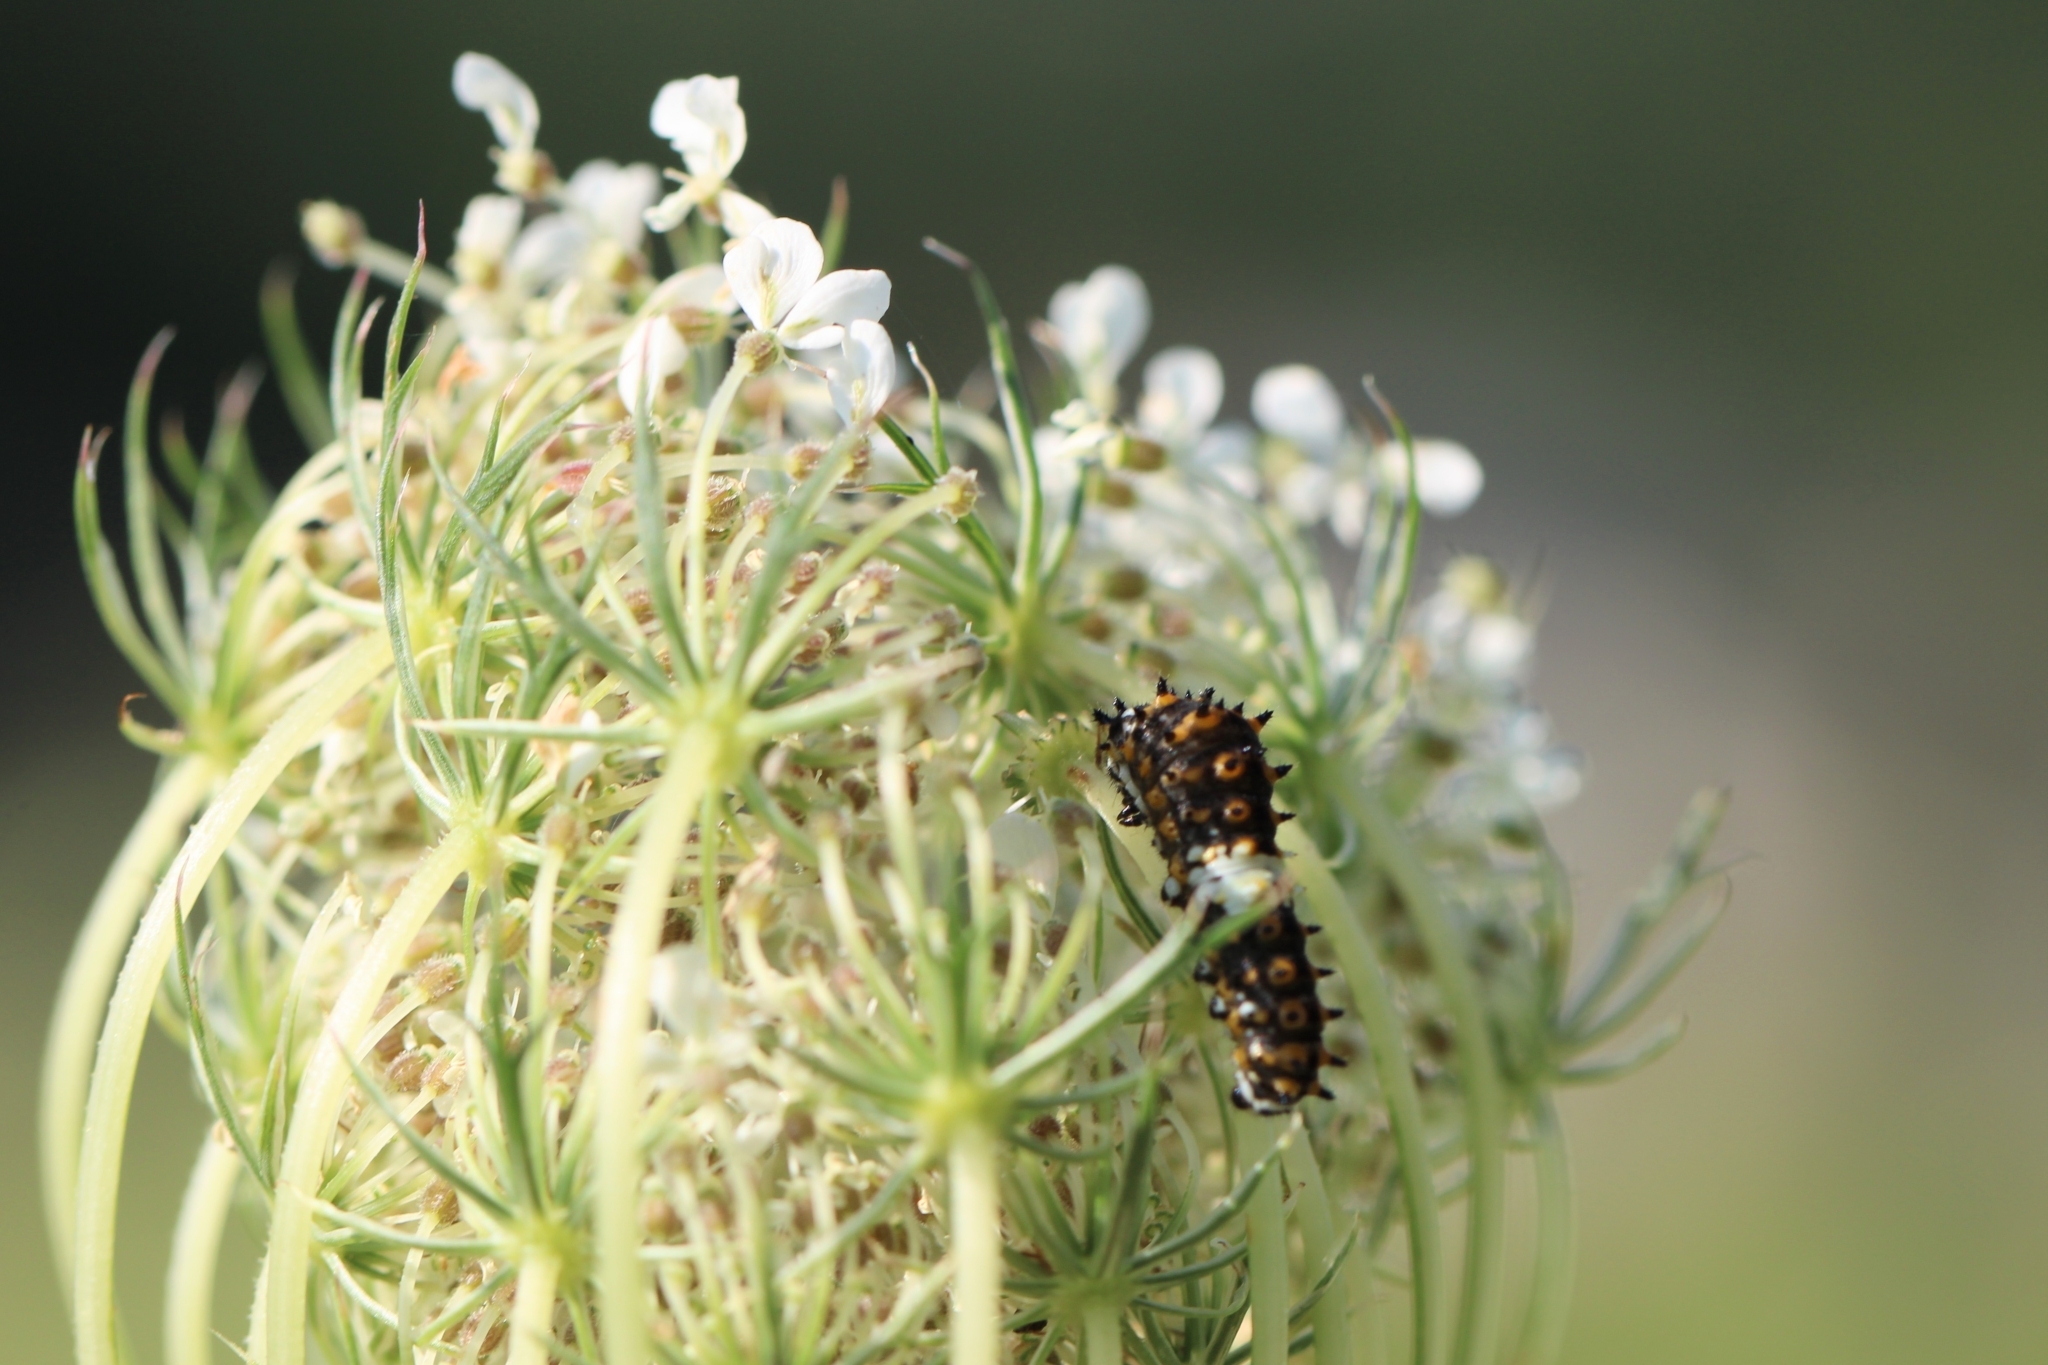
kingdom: Animalia
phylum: Arthropoda
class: Insecta
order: Lepidoptera
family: Papilionidae
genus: Papilio
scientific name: Papilio polyxenes
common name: Black swallowtail
